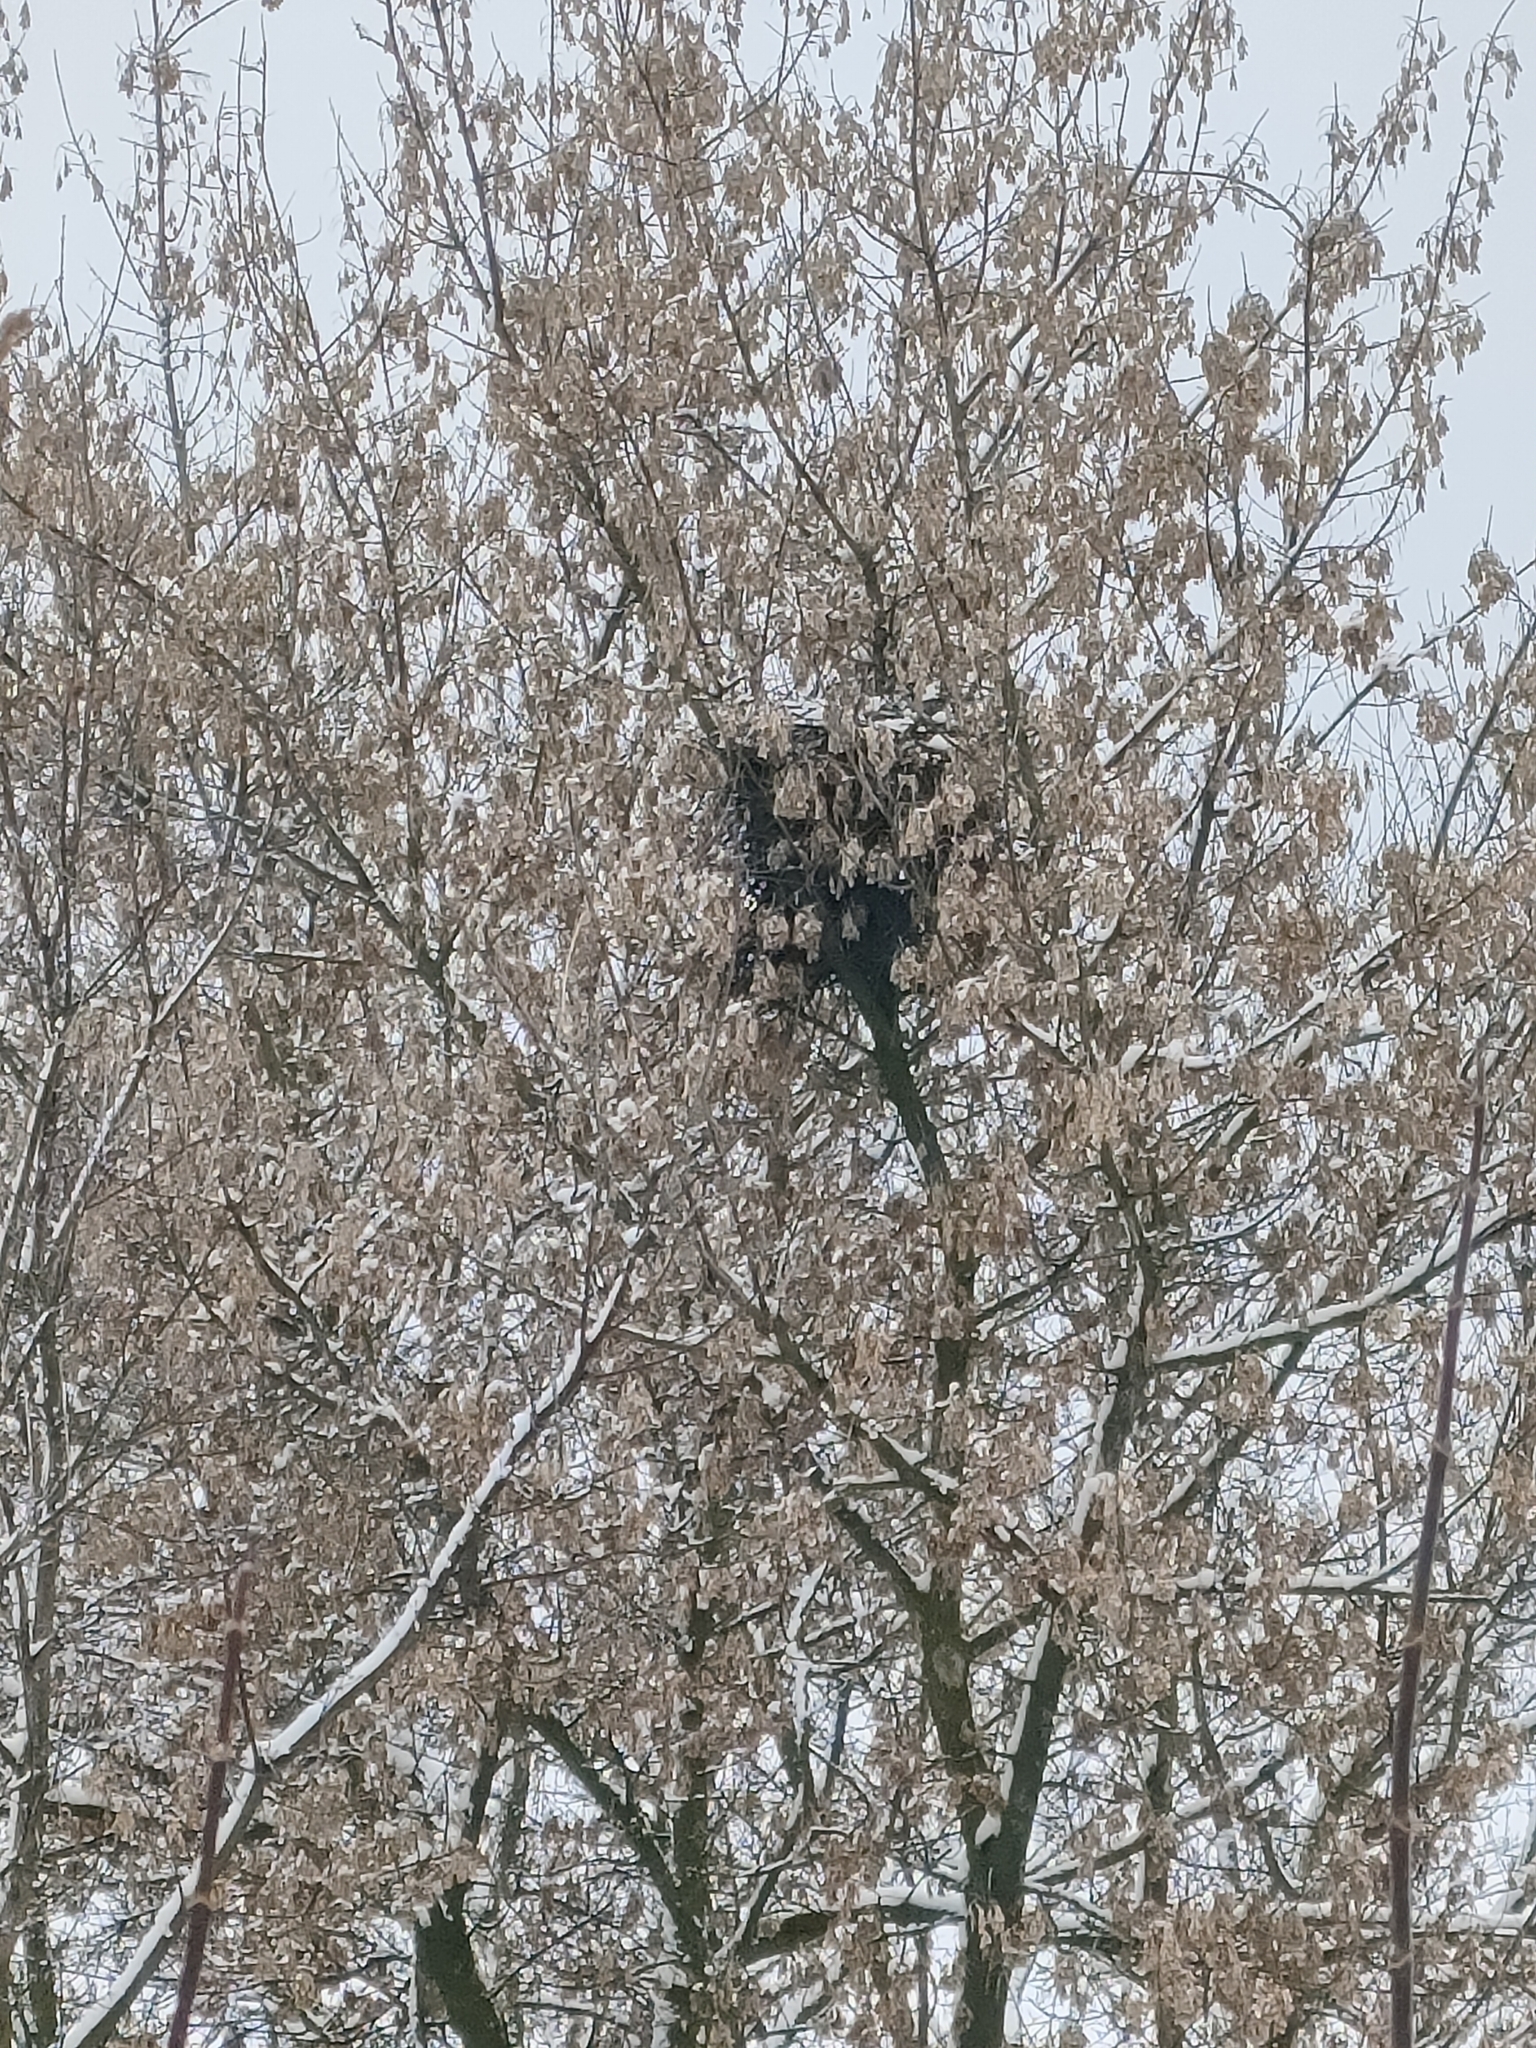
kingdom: Animalia
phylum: Chordata
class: Aves
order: Passeriformes
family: Corvidae
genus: Pica
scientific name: Pica pica
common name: Eurasian magpie
